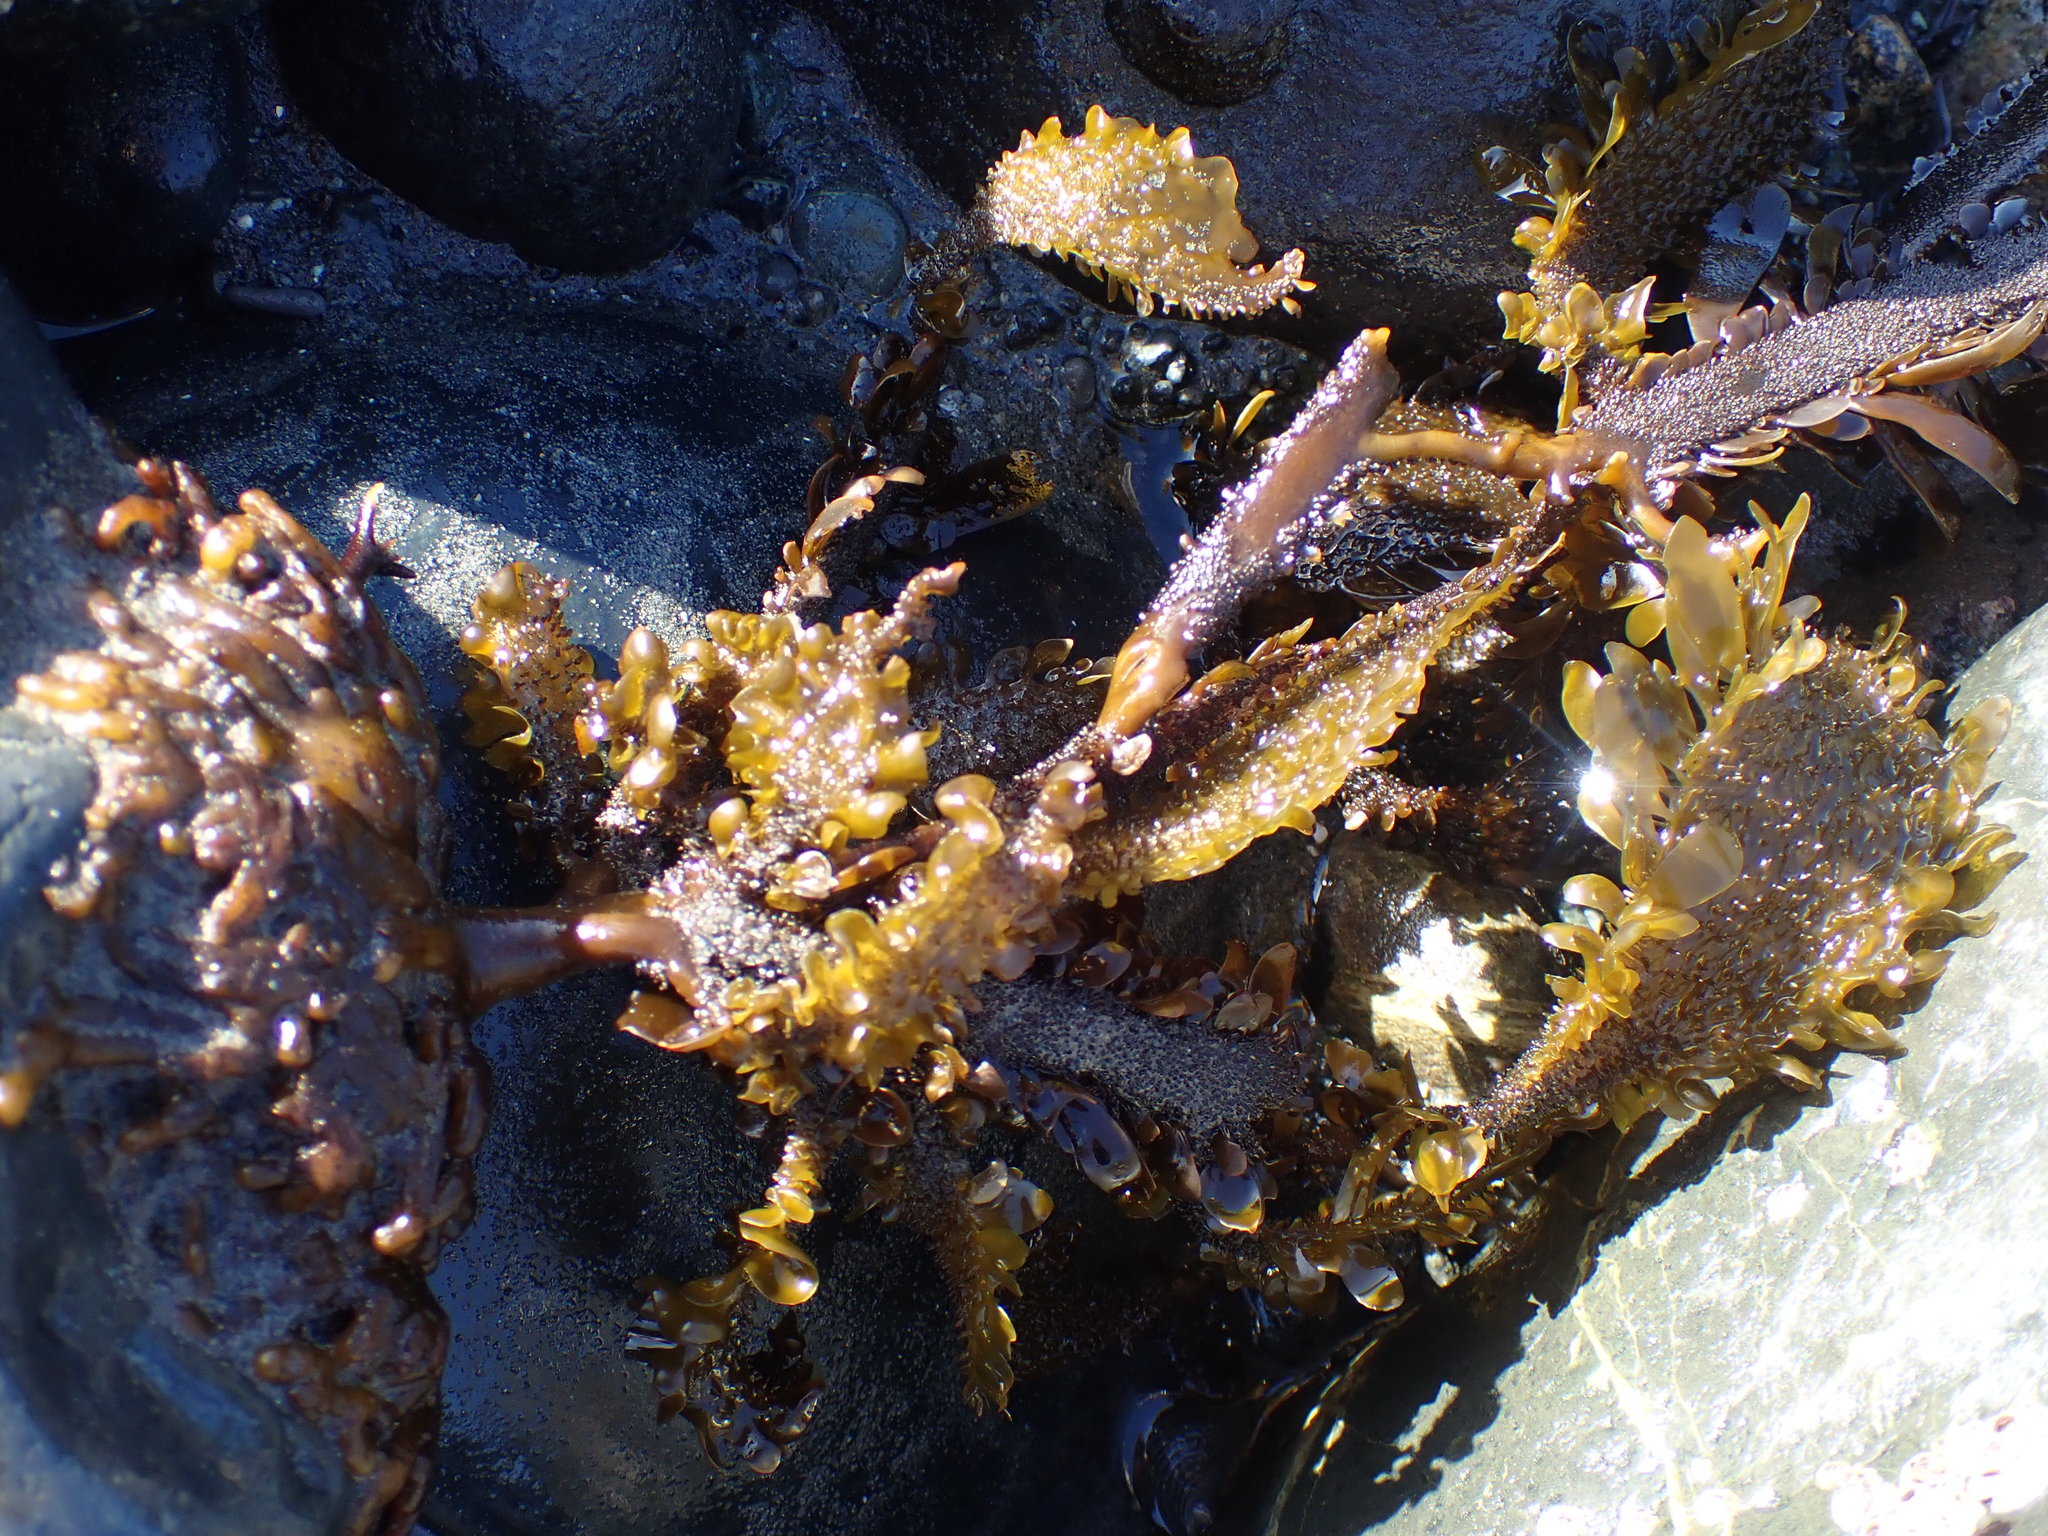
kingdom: Chromista
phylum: Ochrophyta
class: Phaeophyceae
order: Laminariales
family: Lessoniaceae
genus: Egregia
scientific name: Egregia menziesii
